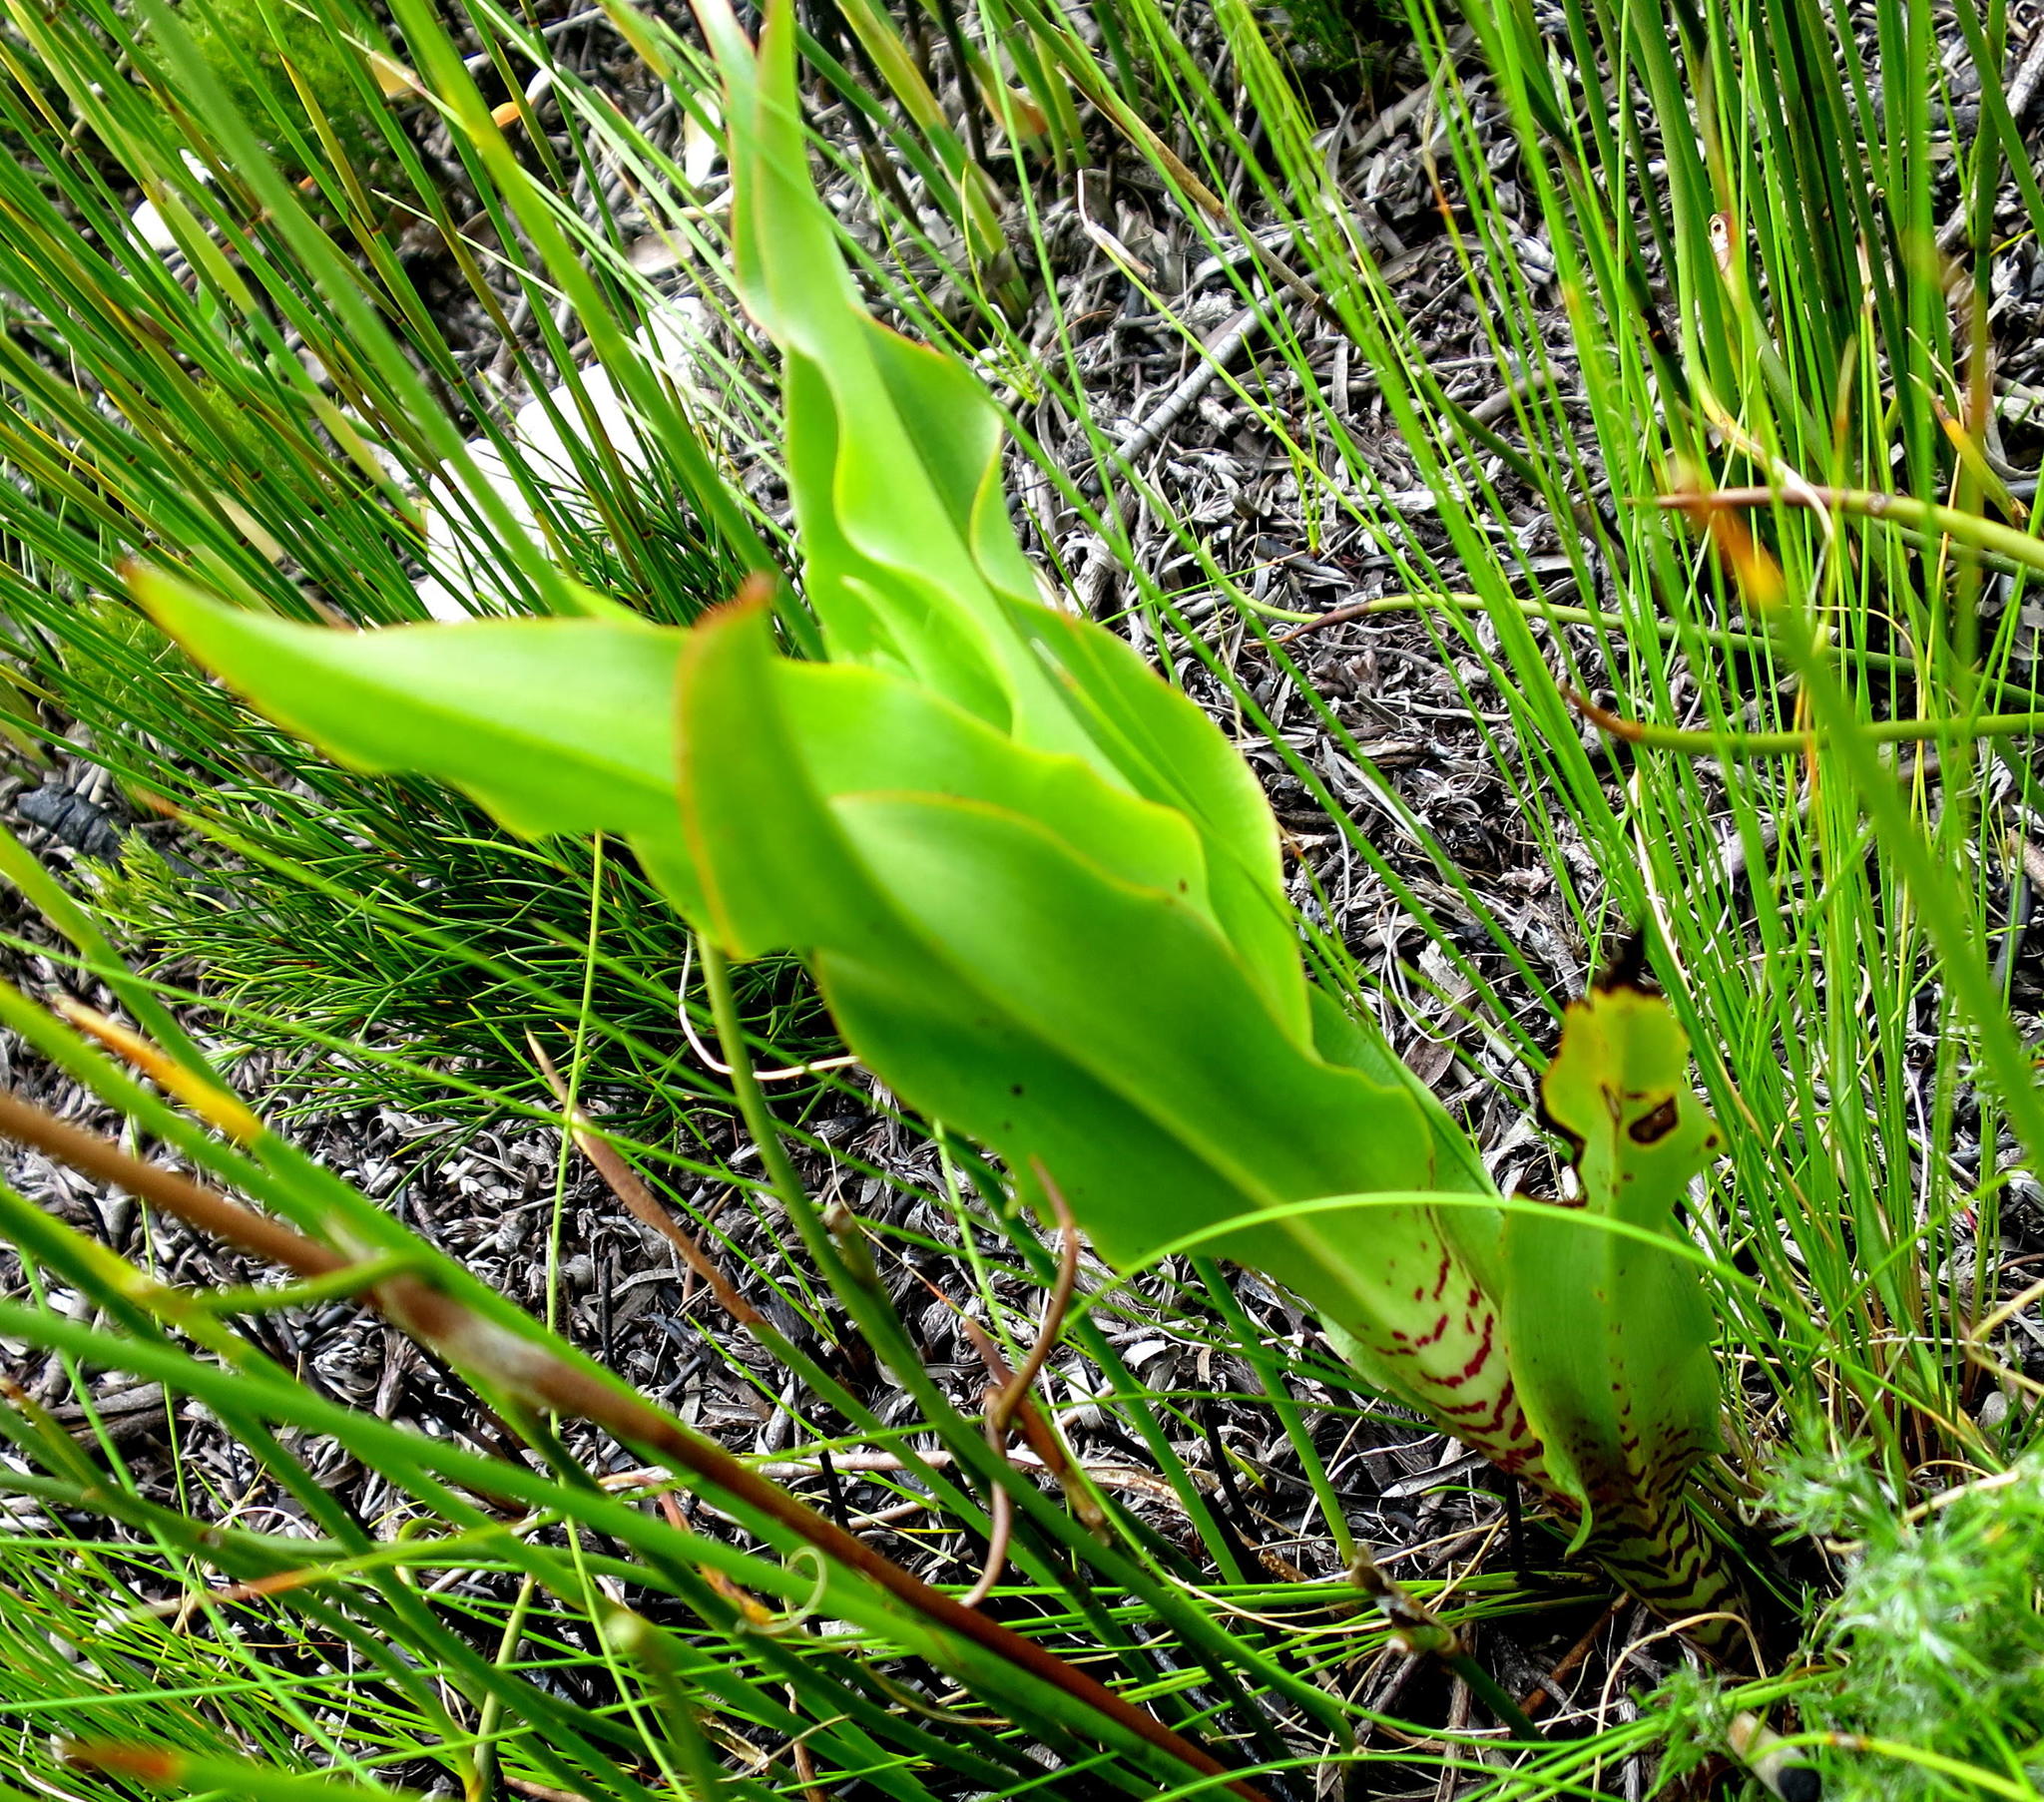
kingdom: Plantae
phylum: Tracheophyta
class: Liliopsida
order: Asparagales
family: Orchidaceae
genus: Disa
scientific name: Disa cornuta
